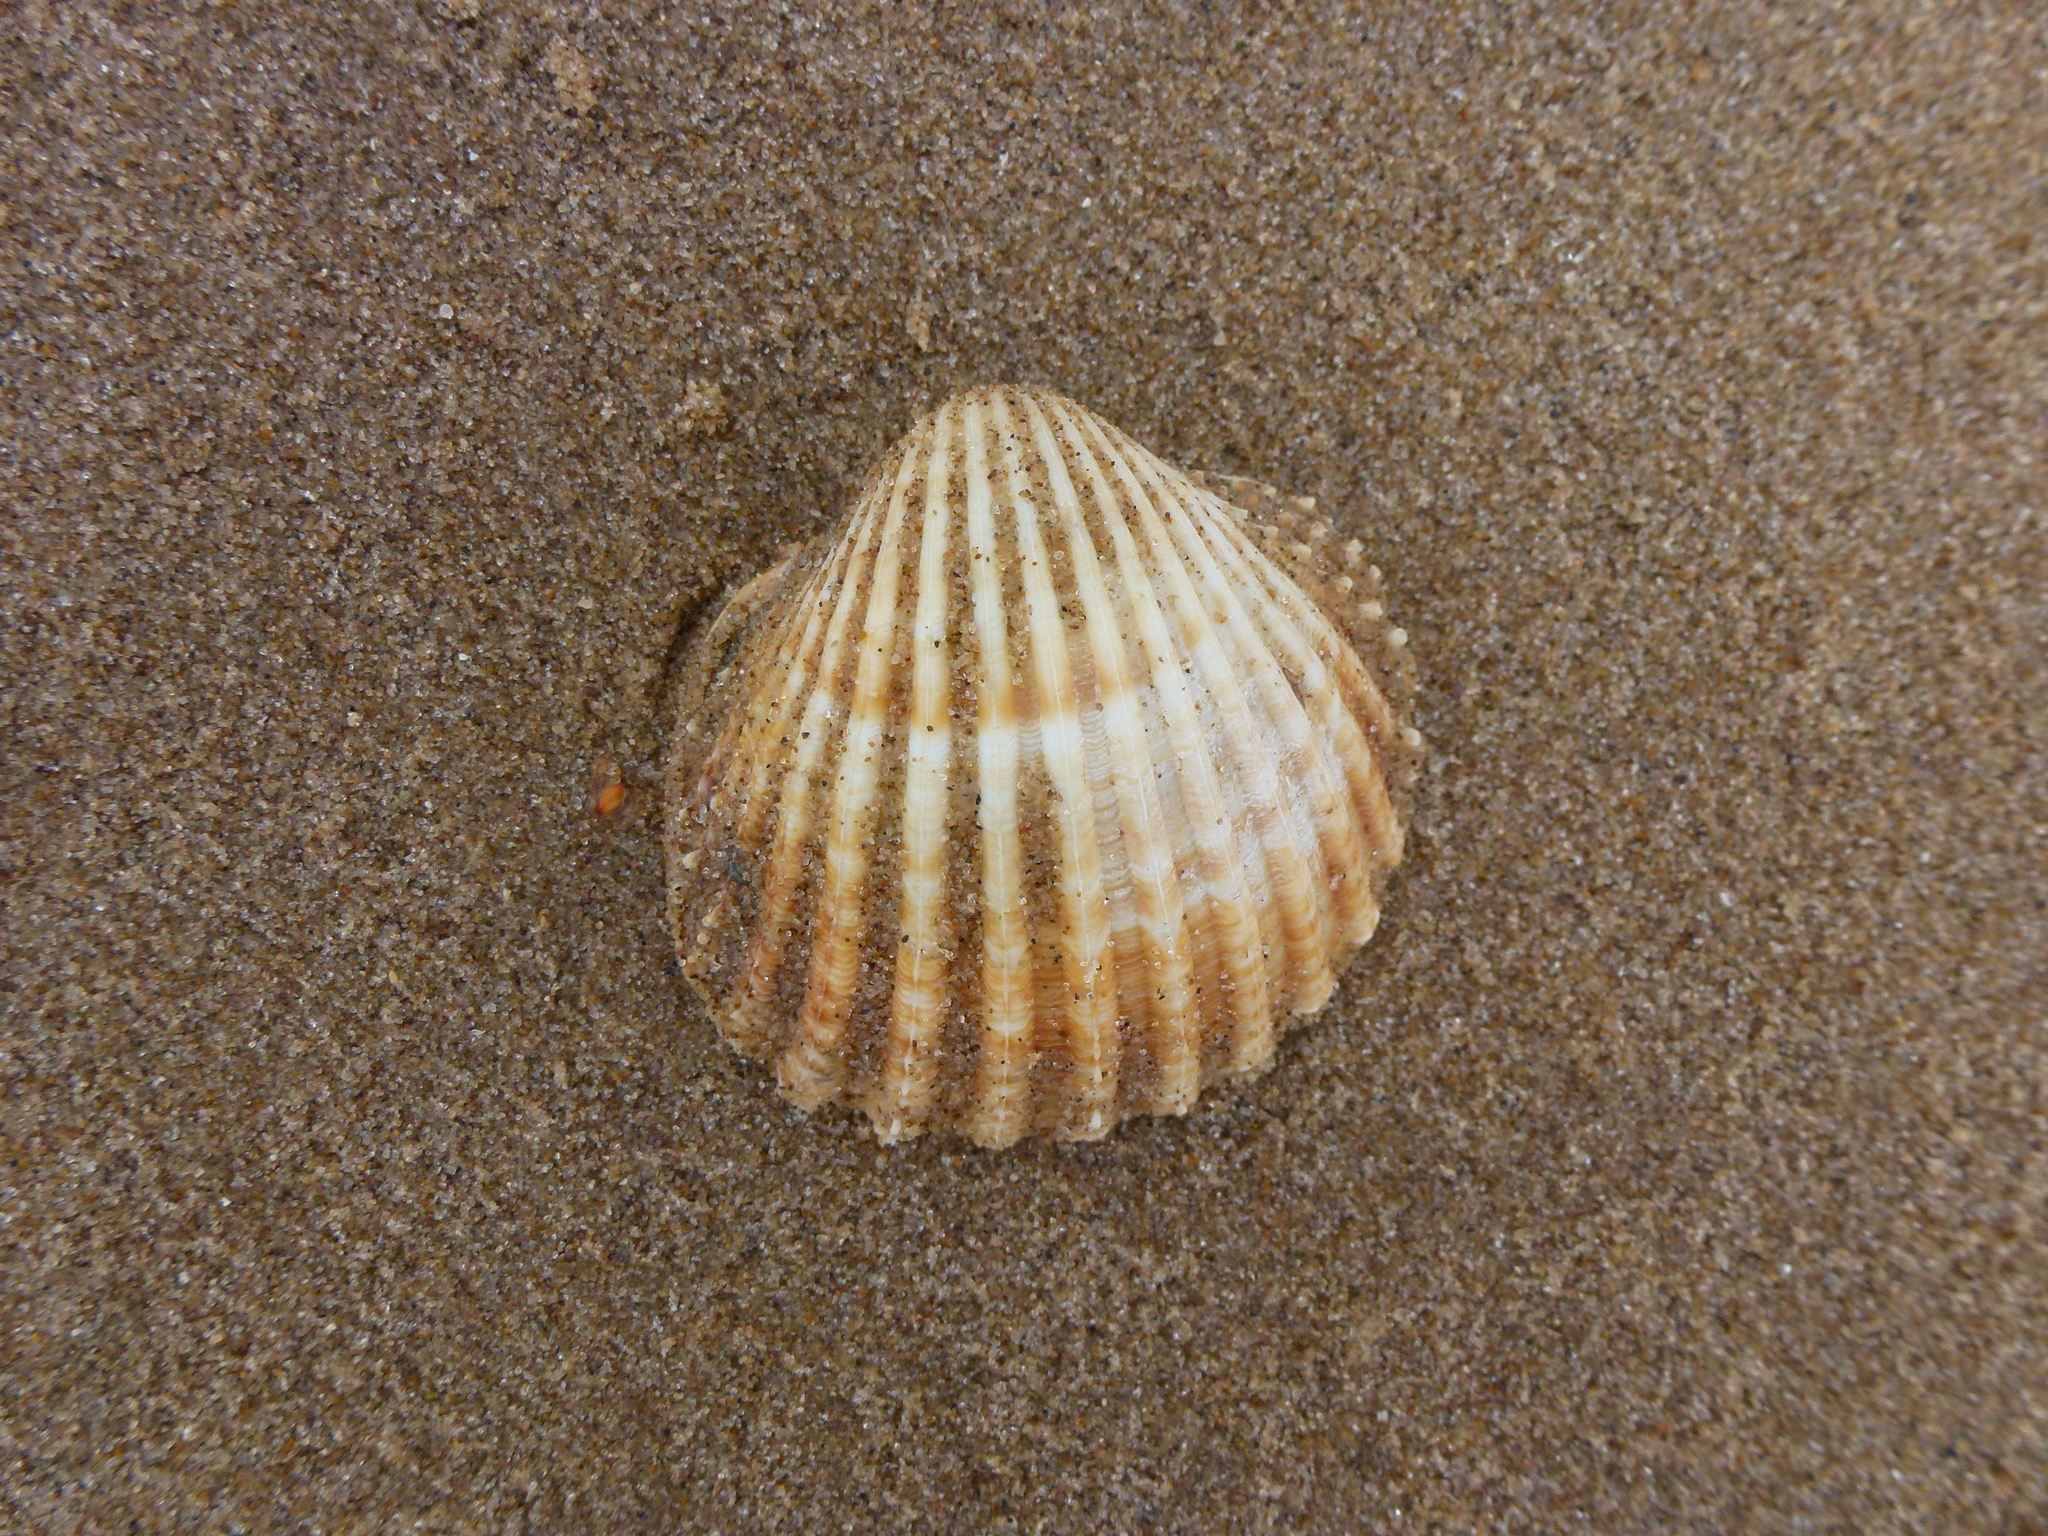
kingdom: Animalia
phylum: Mollusca
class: Bivalvia
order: Cardiida
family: Cardiidae
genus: Acanthocardia
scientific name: Acanthocardia echinata
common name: Prickly cockle
